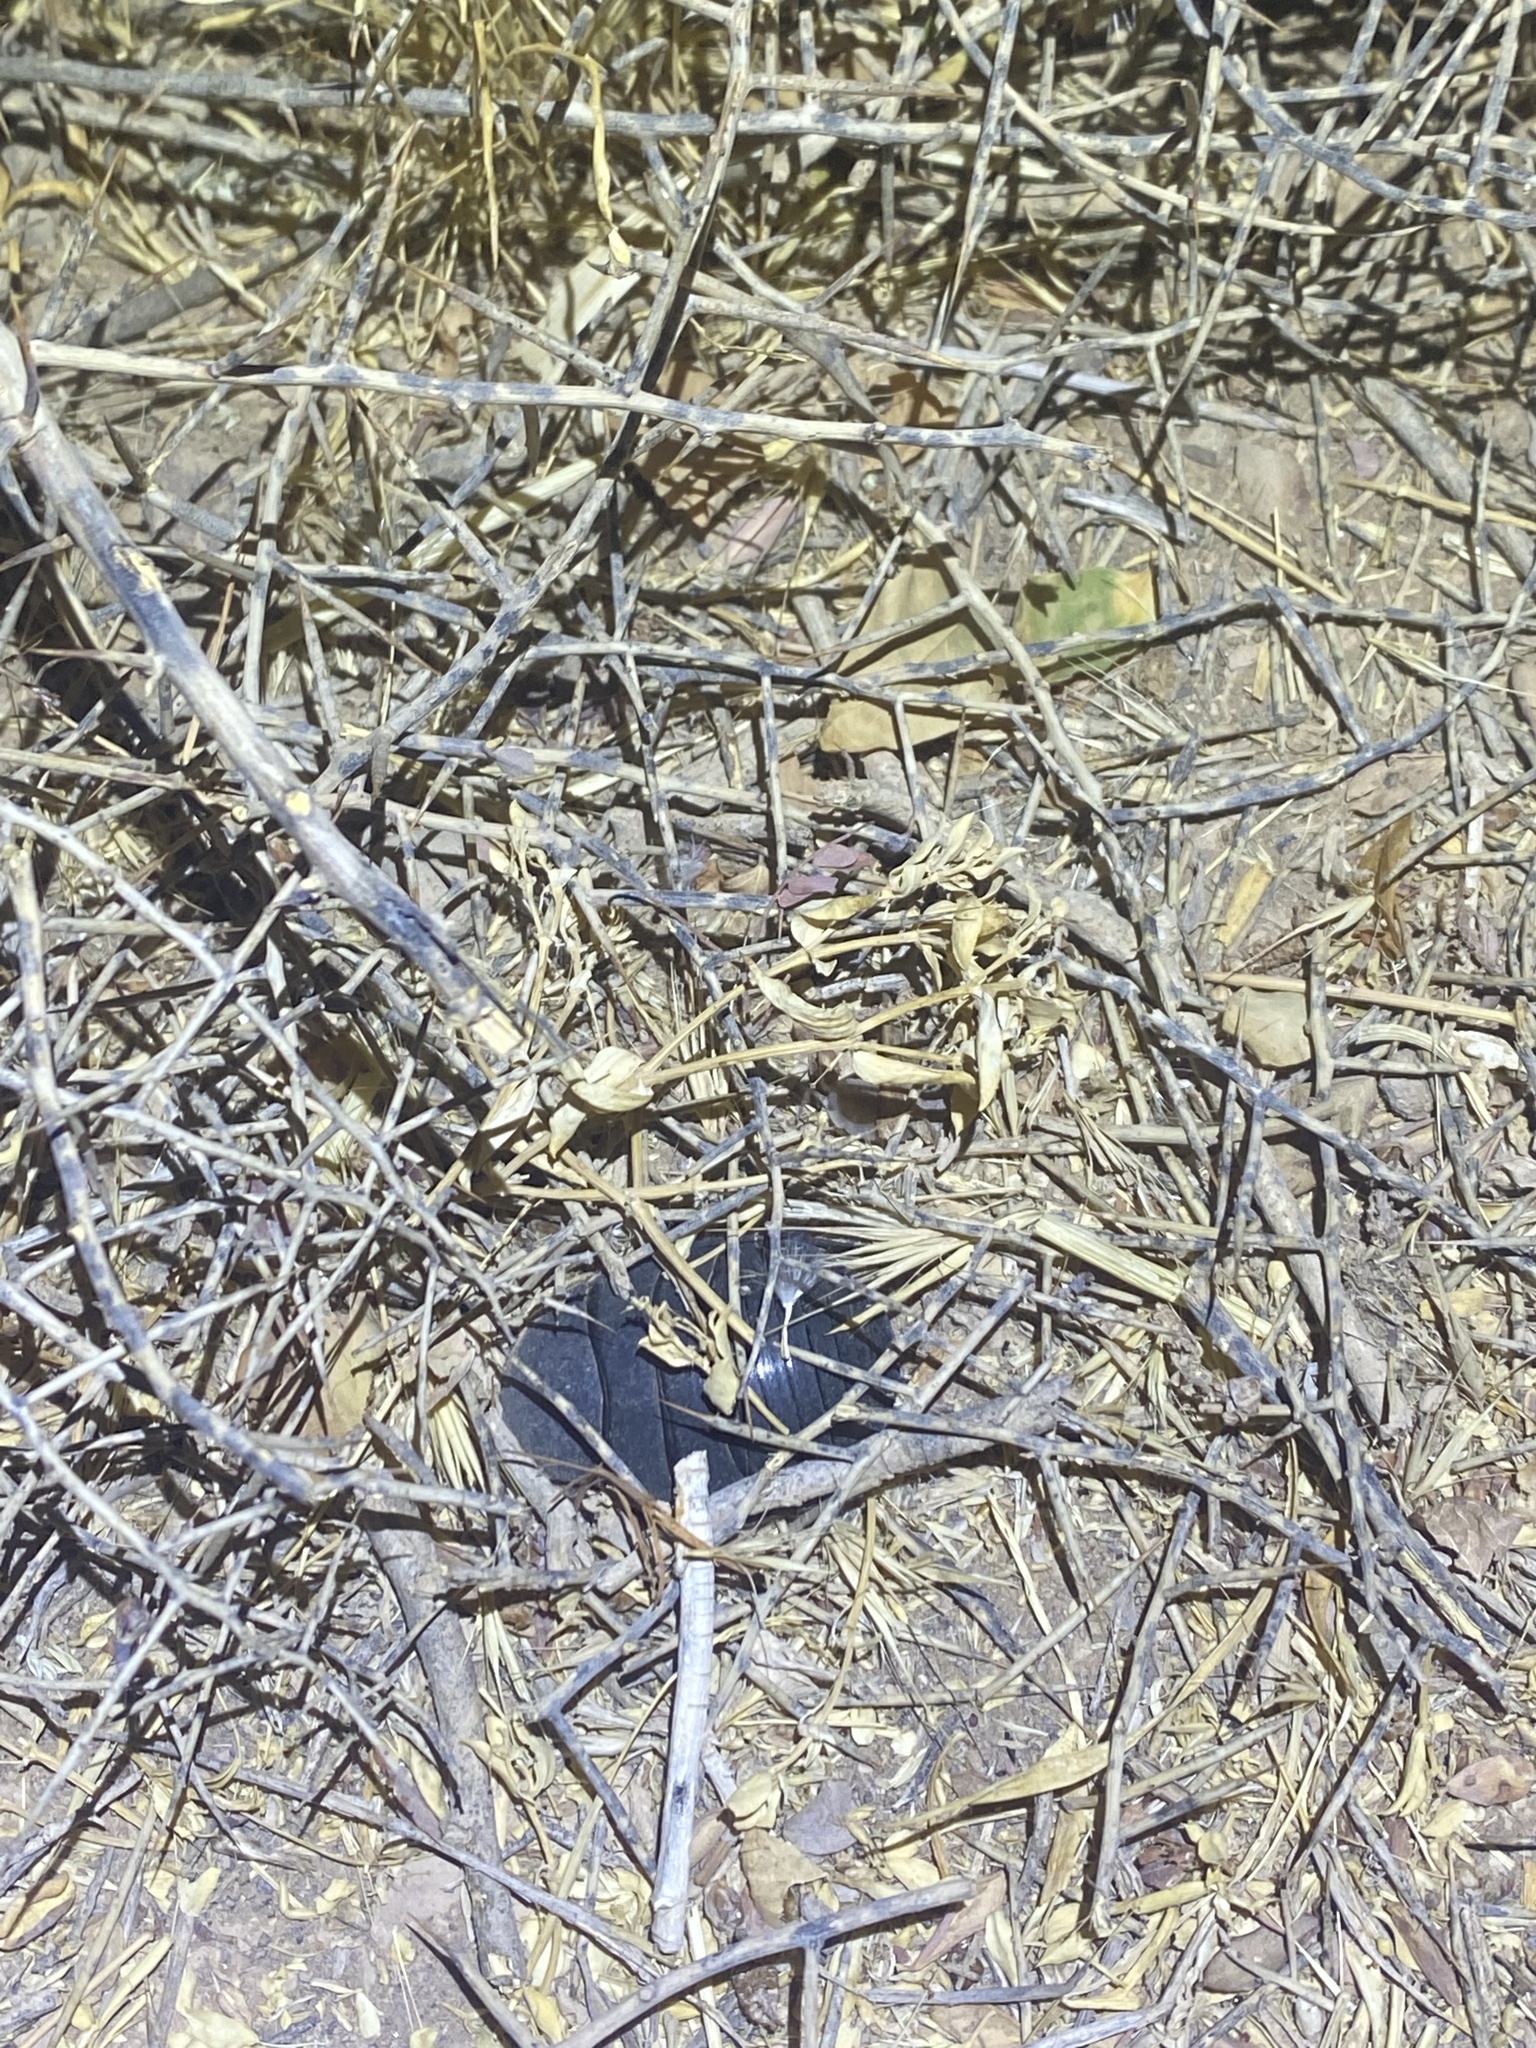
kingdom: Animalia
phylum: Arthropoda
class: Insecta
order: Blattodea
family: Corydiidae
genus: Polyphaga
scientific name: Polyphaga aegyptiaca
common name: Egyptian cockroach
